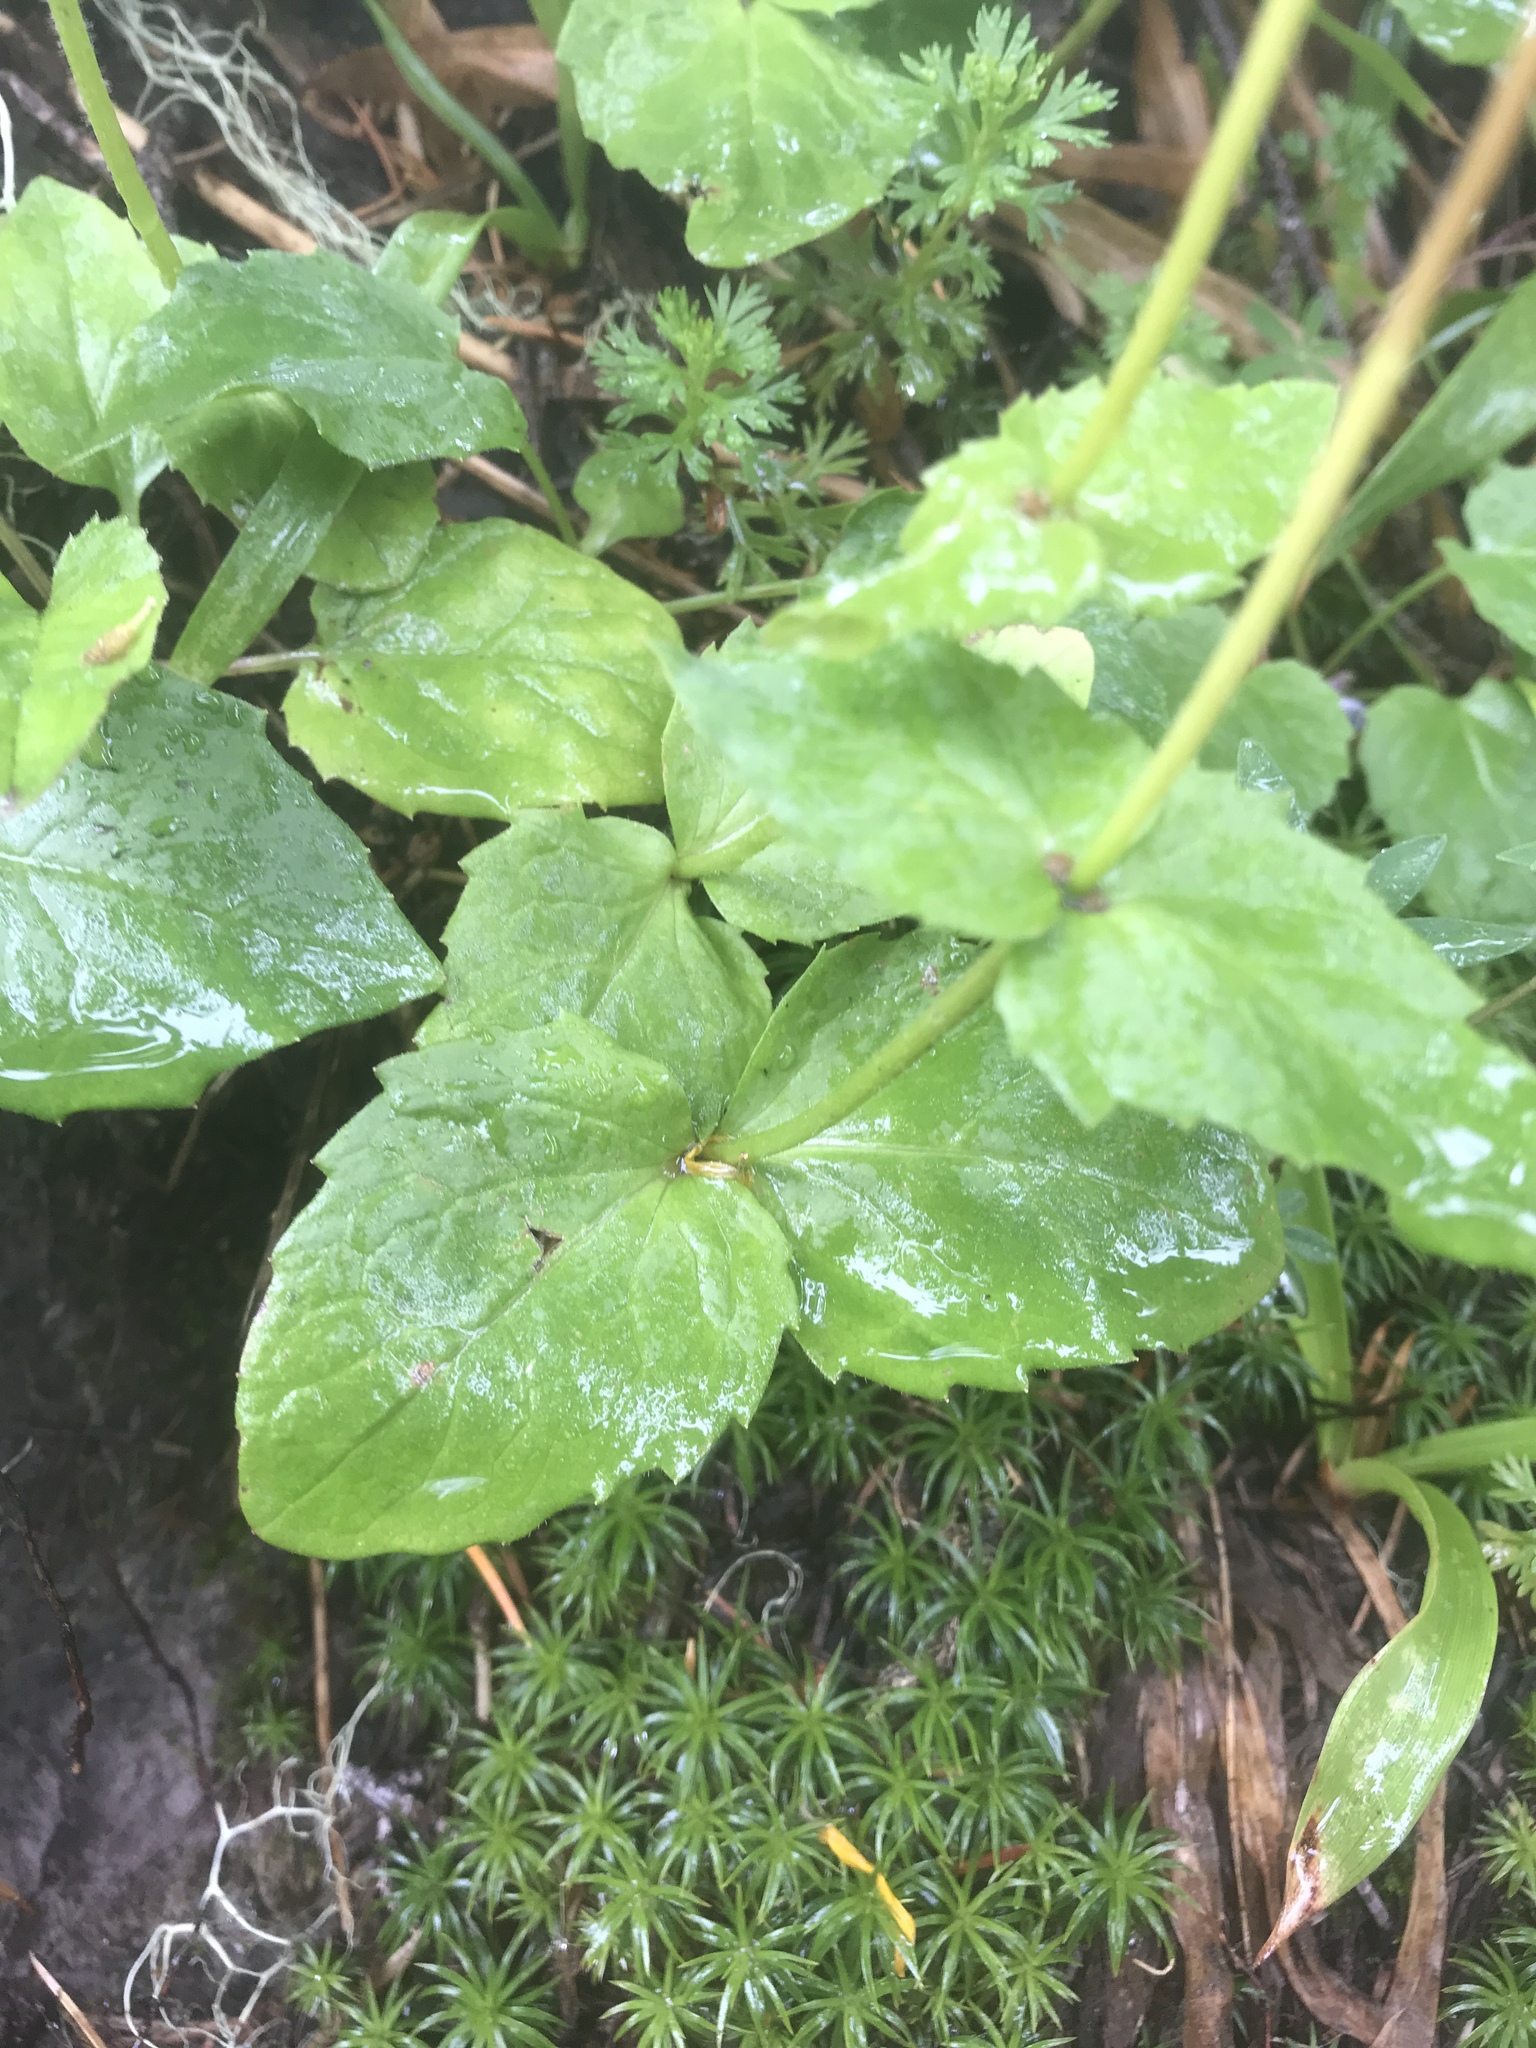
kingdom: Plantae
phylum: Tracheophyta
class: Magnoliopsida
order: Asterales
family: Asteraceae
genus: Arnica
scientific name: Arnica latifolia
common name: Arnica
